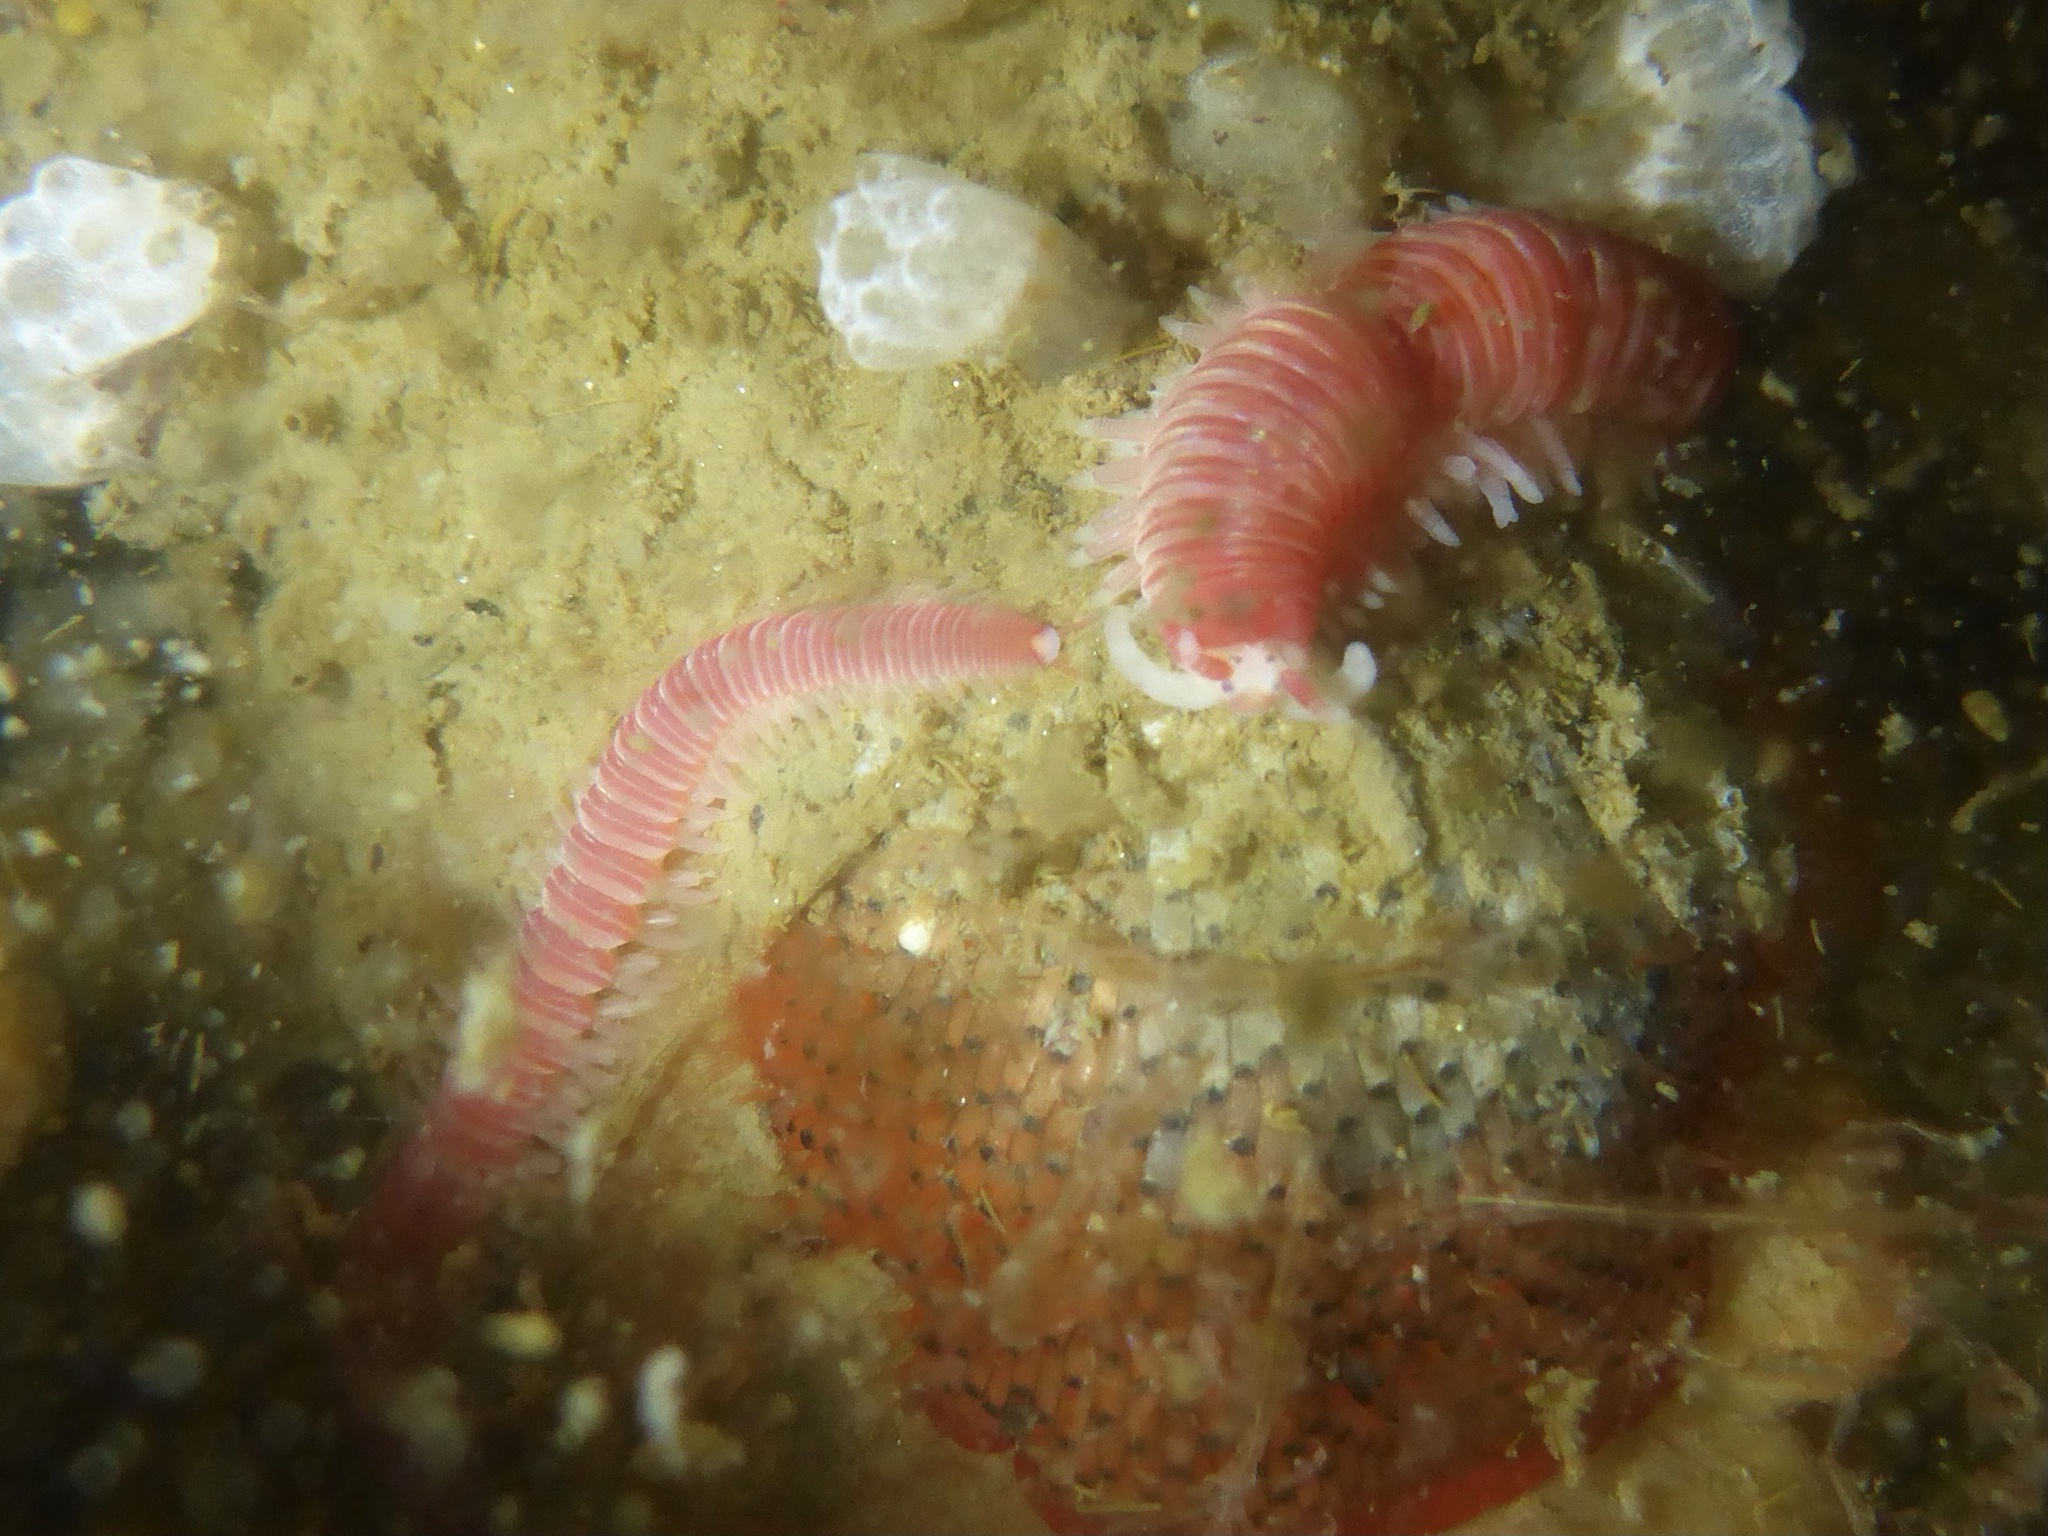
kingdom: Animalia
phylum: Annelida
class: Polychaeta
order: Eunicida
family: Dorvilleidae
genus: Dorvillea
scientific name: Dorvillea moniloceras
